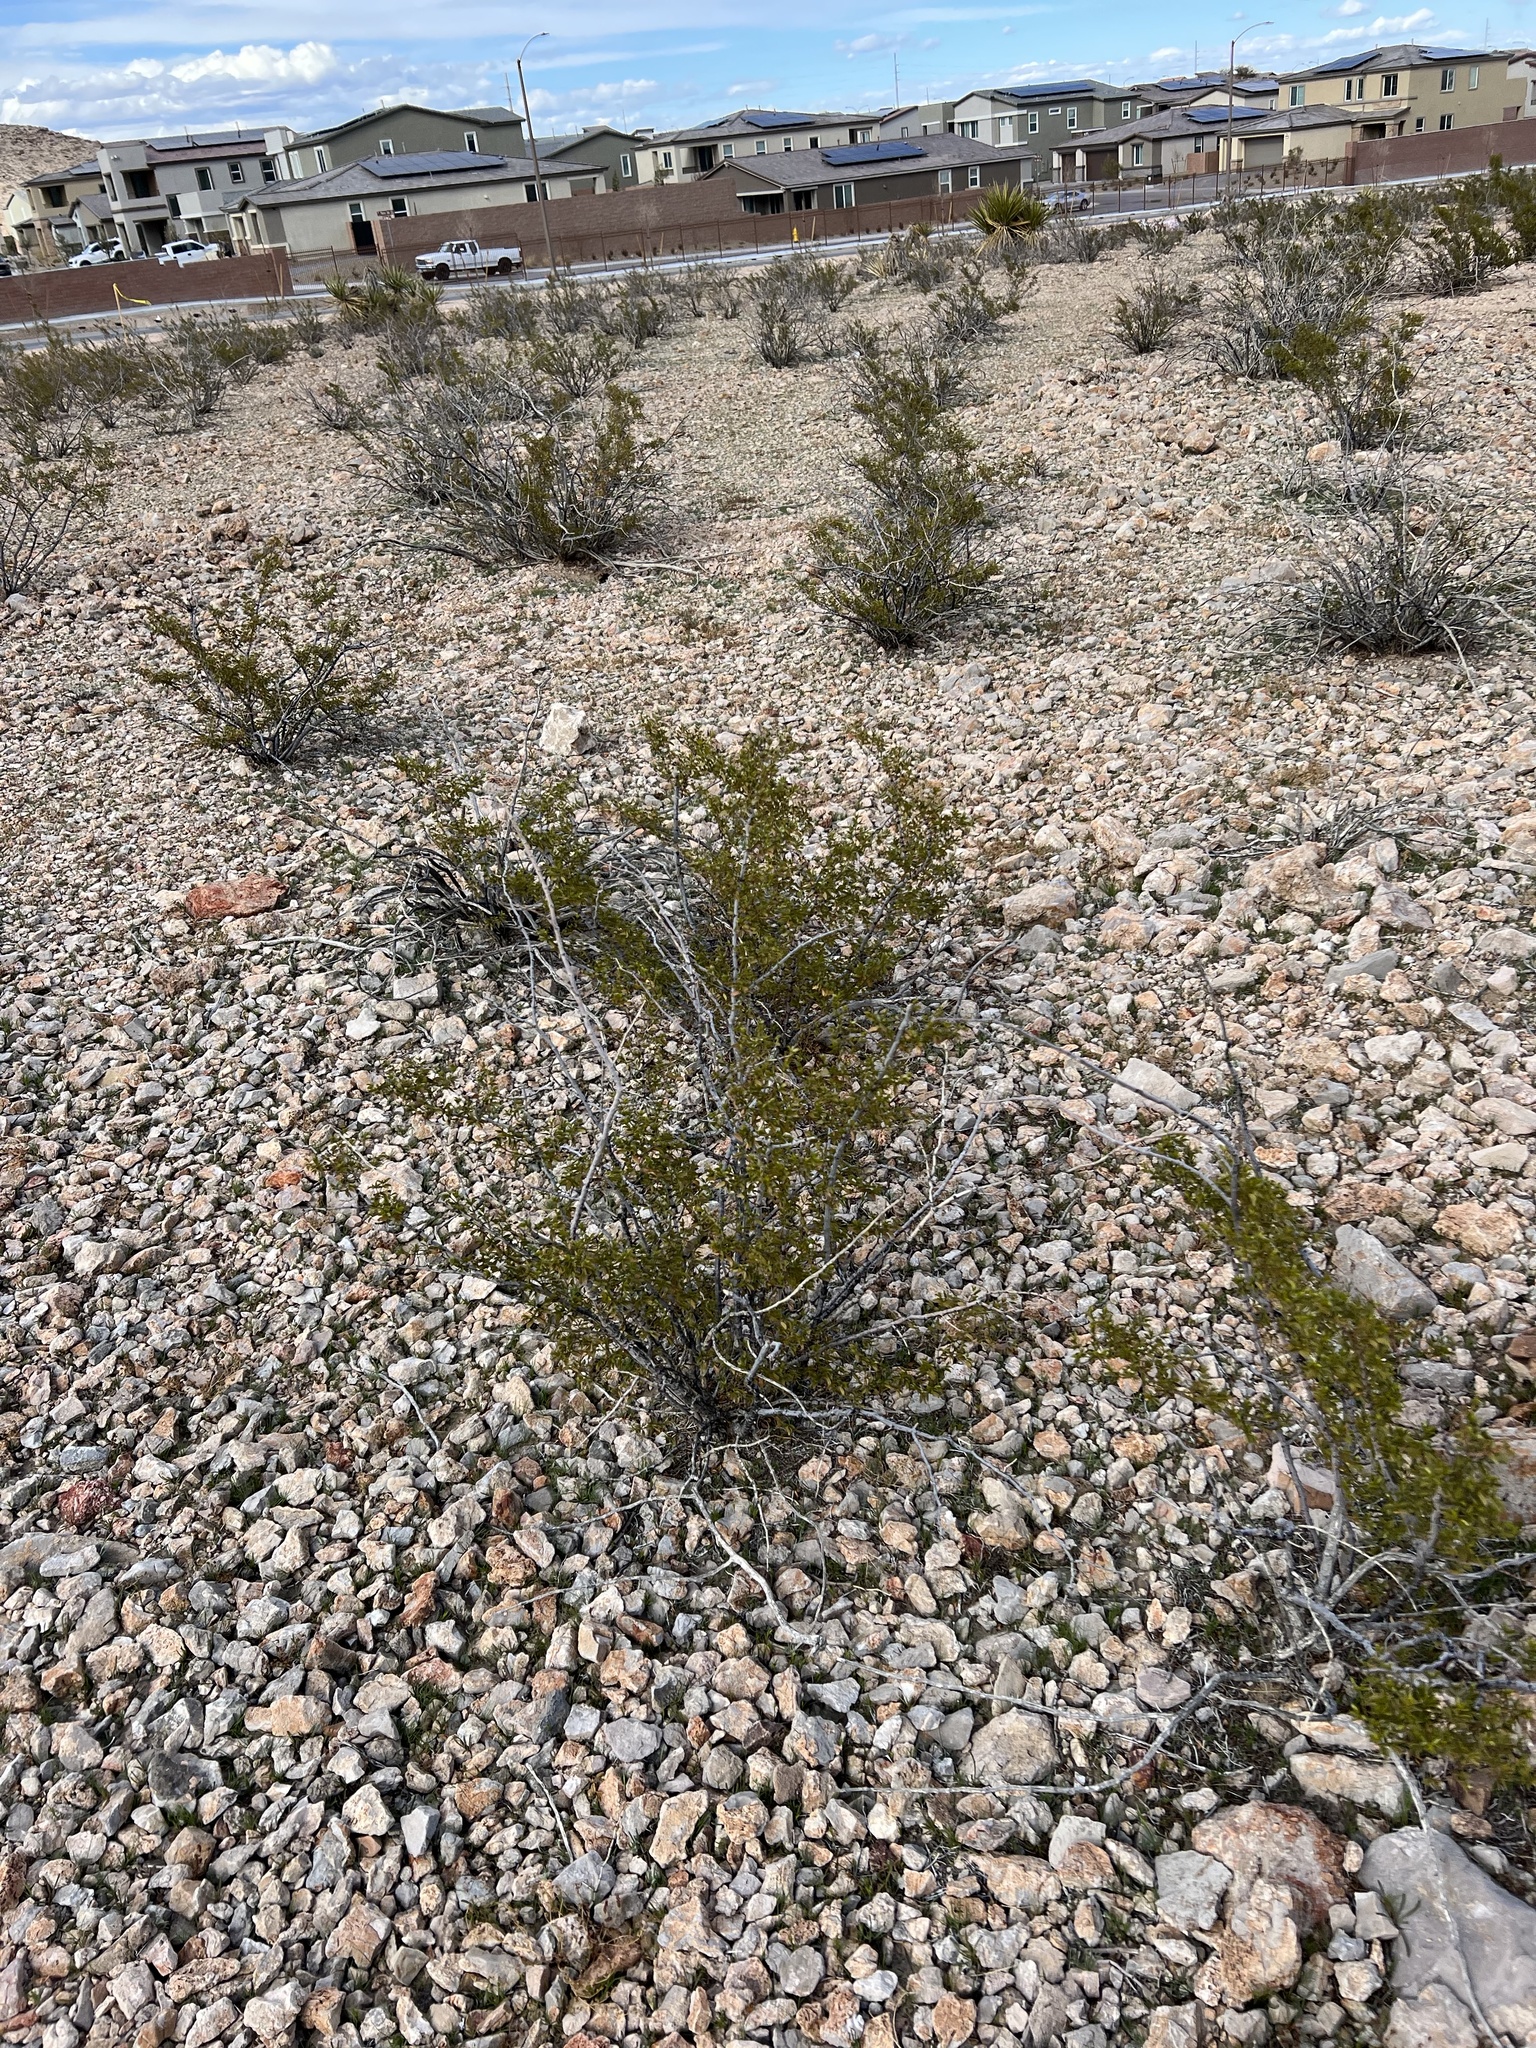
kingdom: Plantae
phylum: Tracheophyta
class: Magnoliopsida
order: Zygophyllales
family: Zygophyllaceae
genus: Larrea
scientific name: Larrea tridentata
